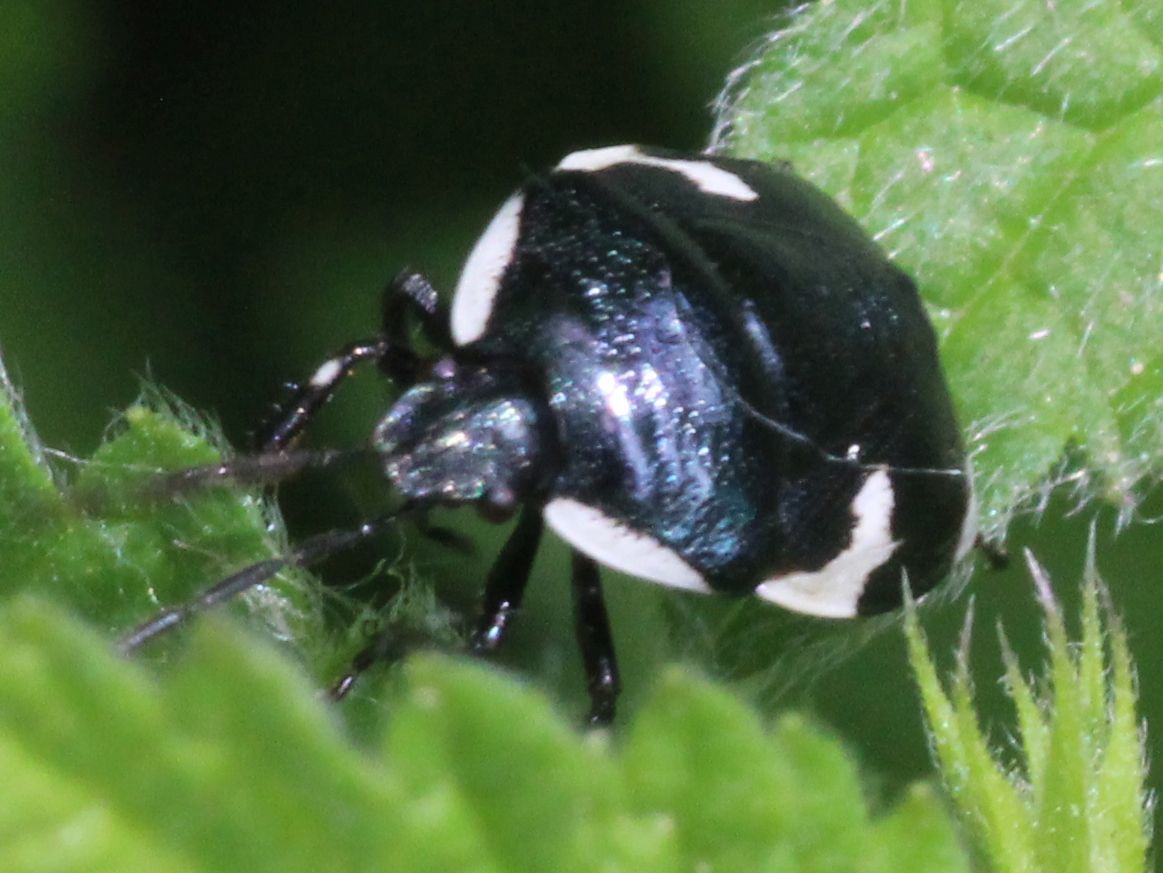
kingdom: Animalia
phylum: Arthropoda
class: Insecta
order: Hemiptera
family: Cydnidae
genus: Tritomegas
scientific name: Tritomegas sexmaculatus
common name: Rambur's pied shieldbug
